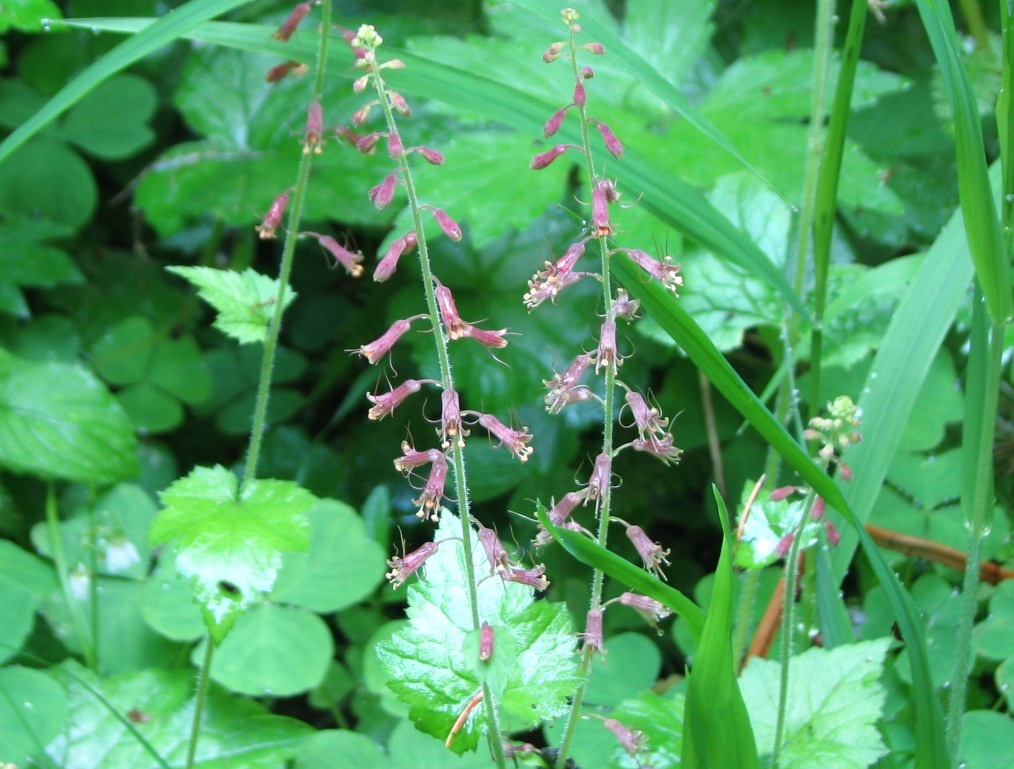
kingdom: Plantae
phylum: Tracheophyta
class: Magnoliopsida
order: Saxifragales
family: Saxifragaceae
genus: Tolmiea
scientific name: Tolmiea menziesii
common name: Pick-a-back-plant
